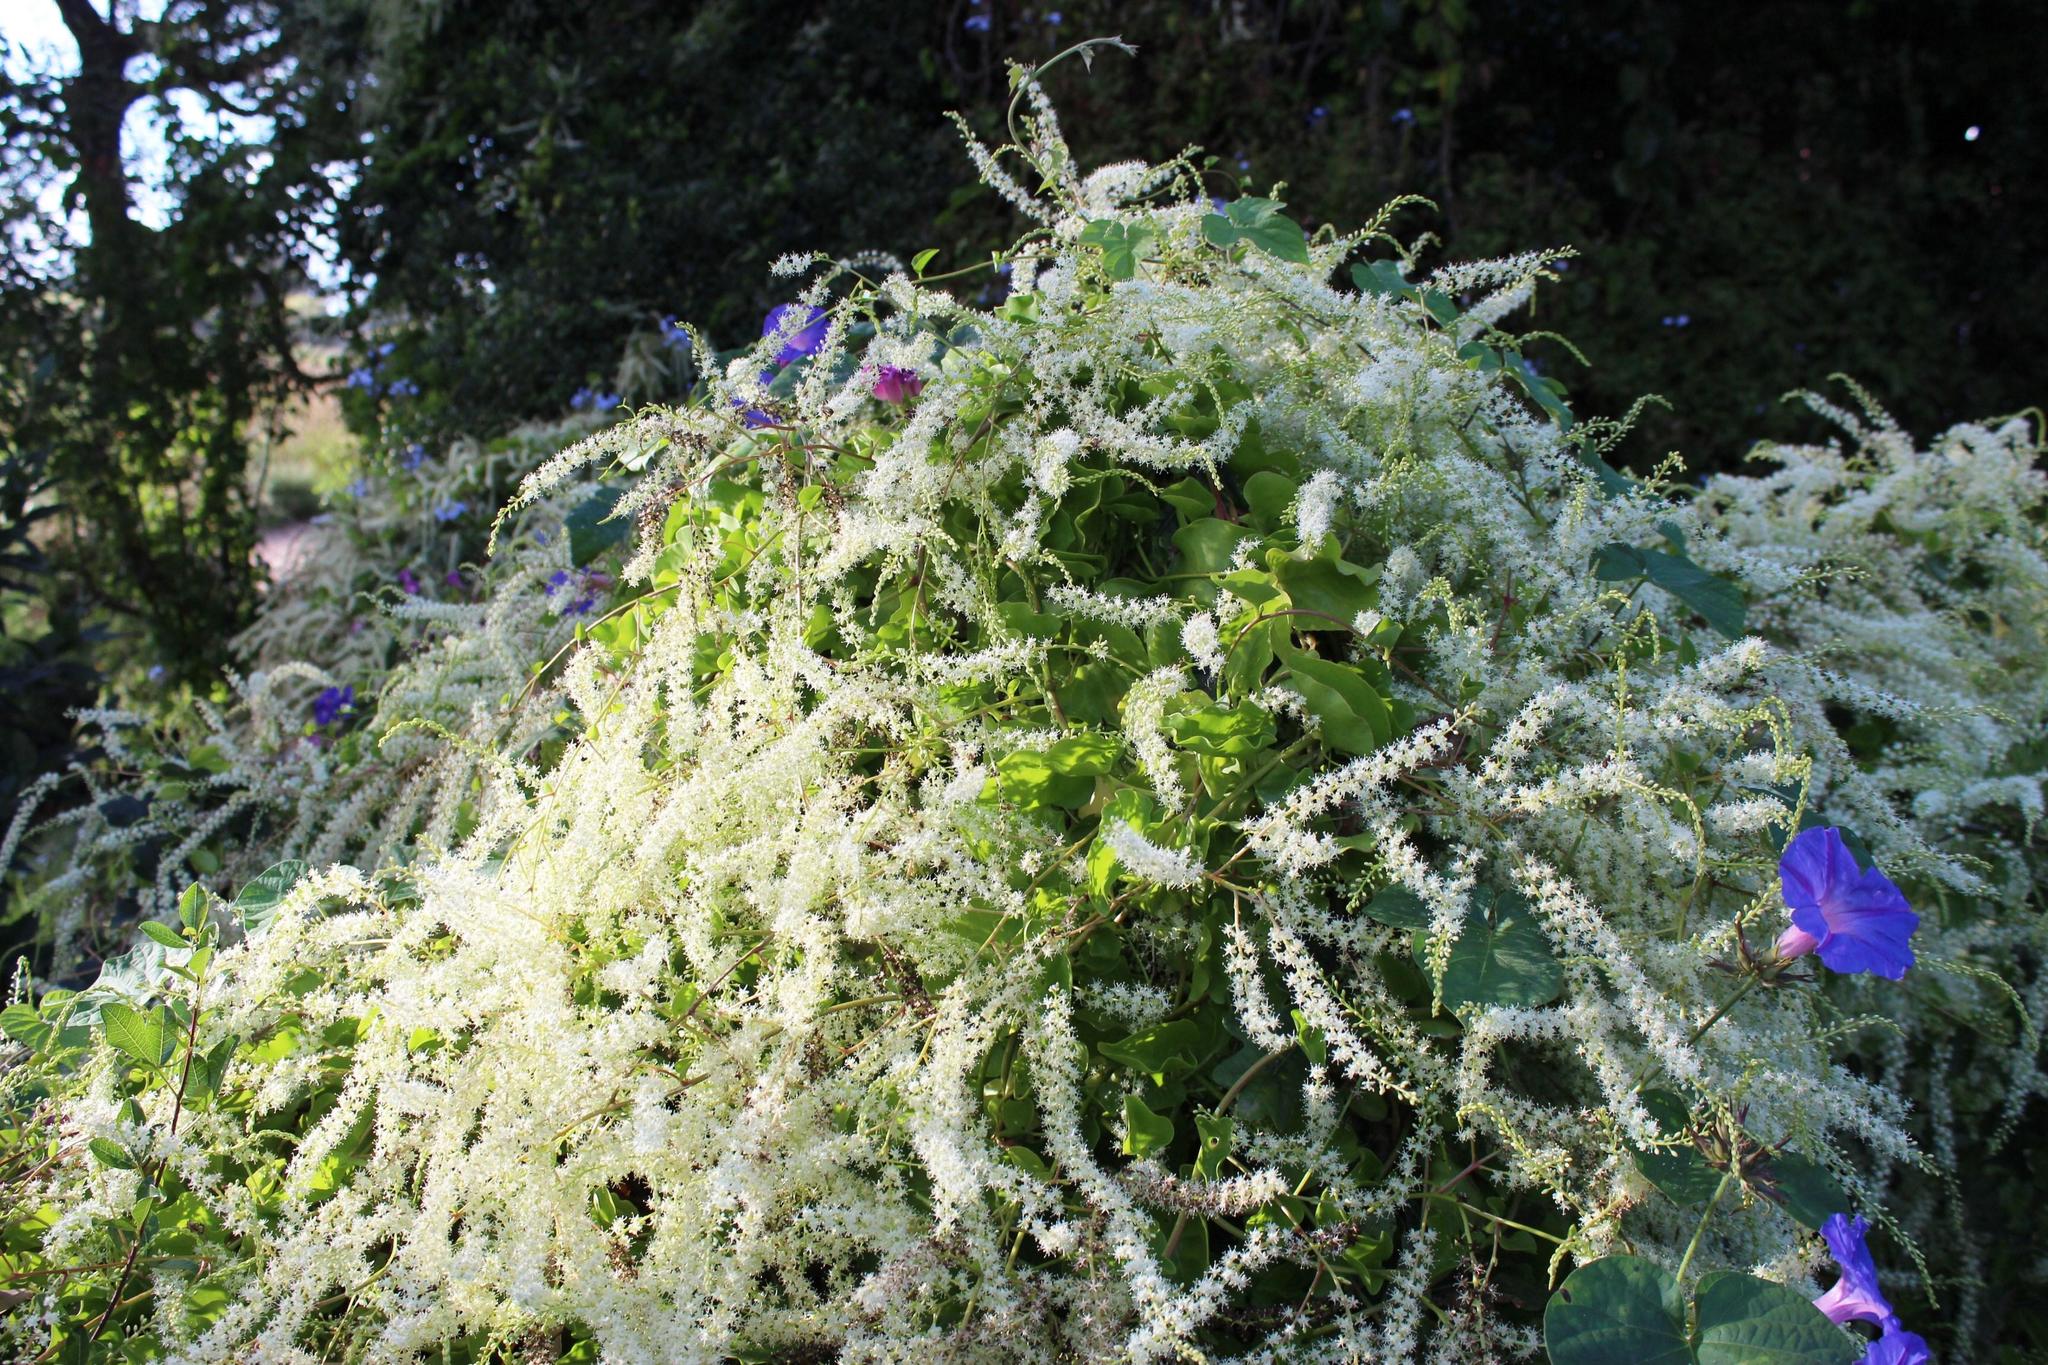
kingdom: Plantae
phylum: Tracheophyta
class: Magnoliopsida
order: Caryophyllales
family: Basellaceae
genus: Anredera
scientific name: Anredera cordifolia
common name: Heartleaf madeiravine
